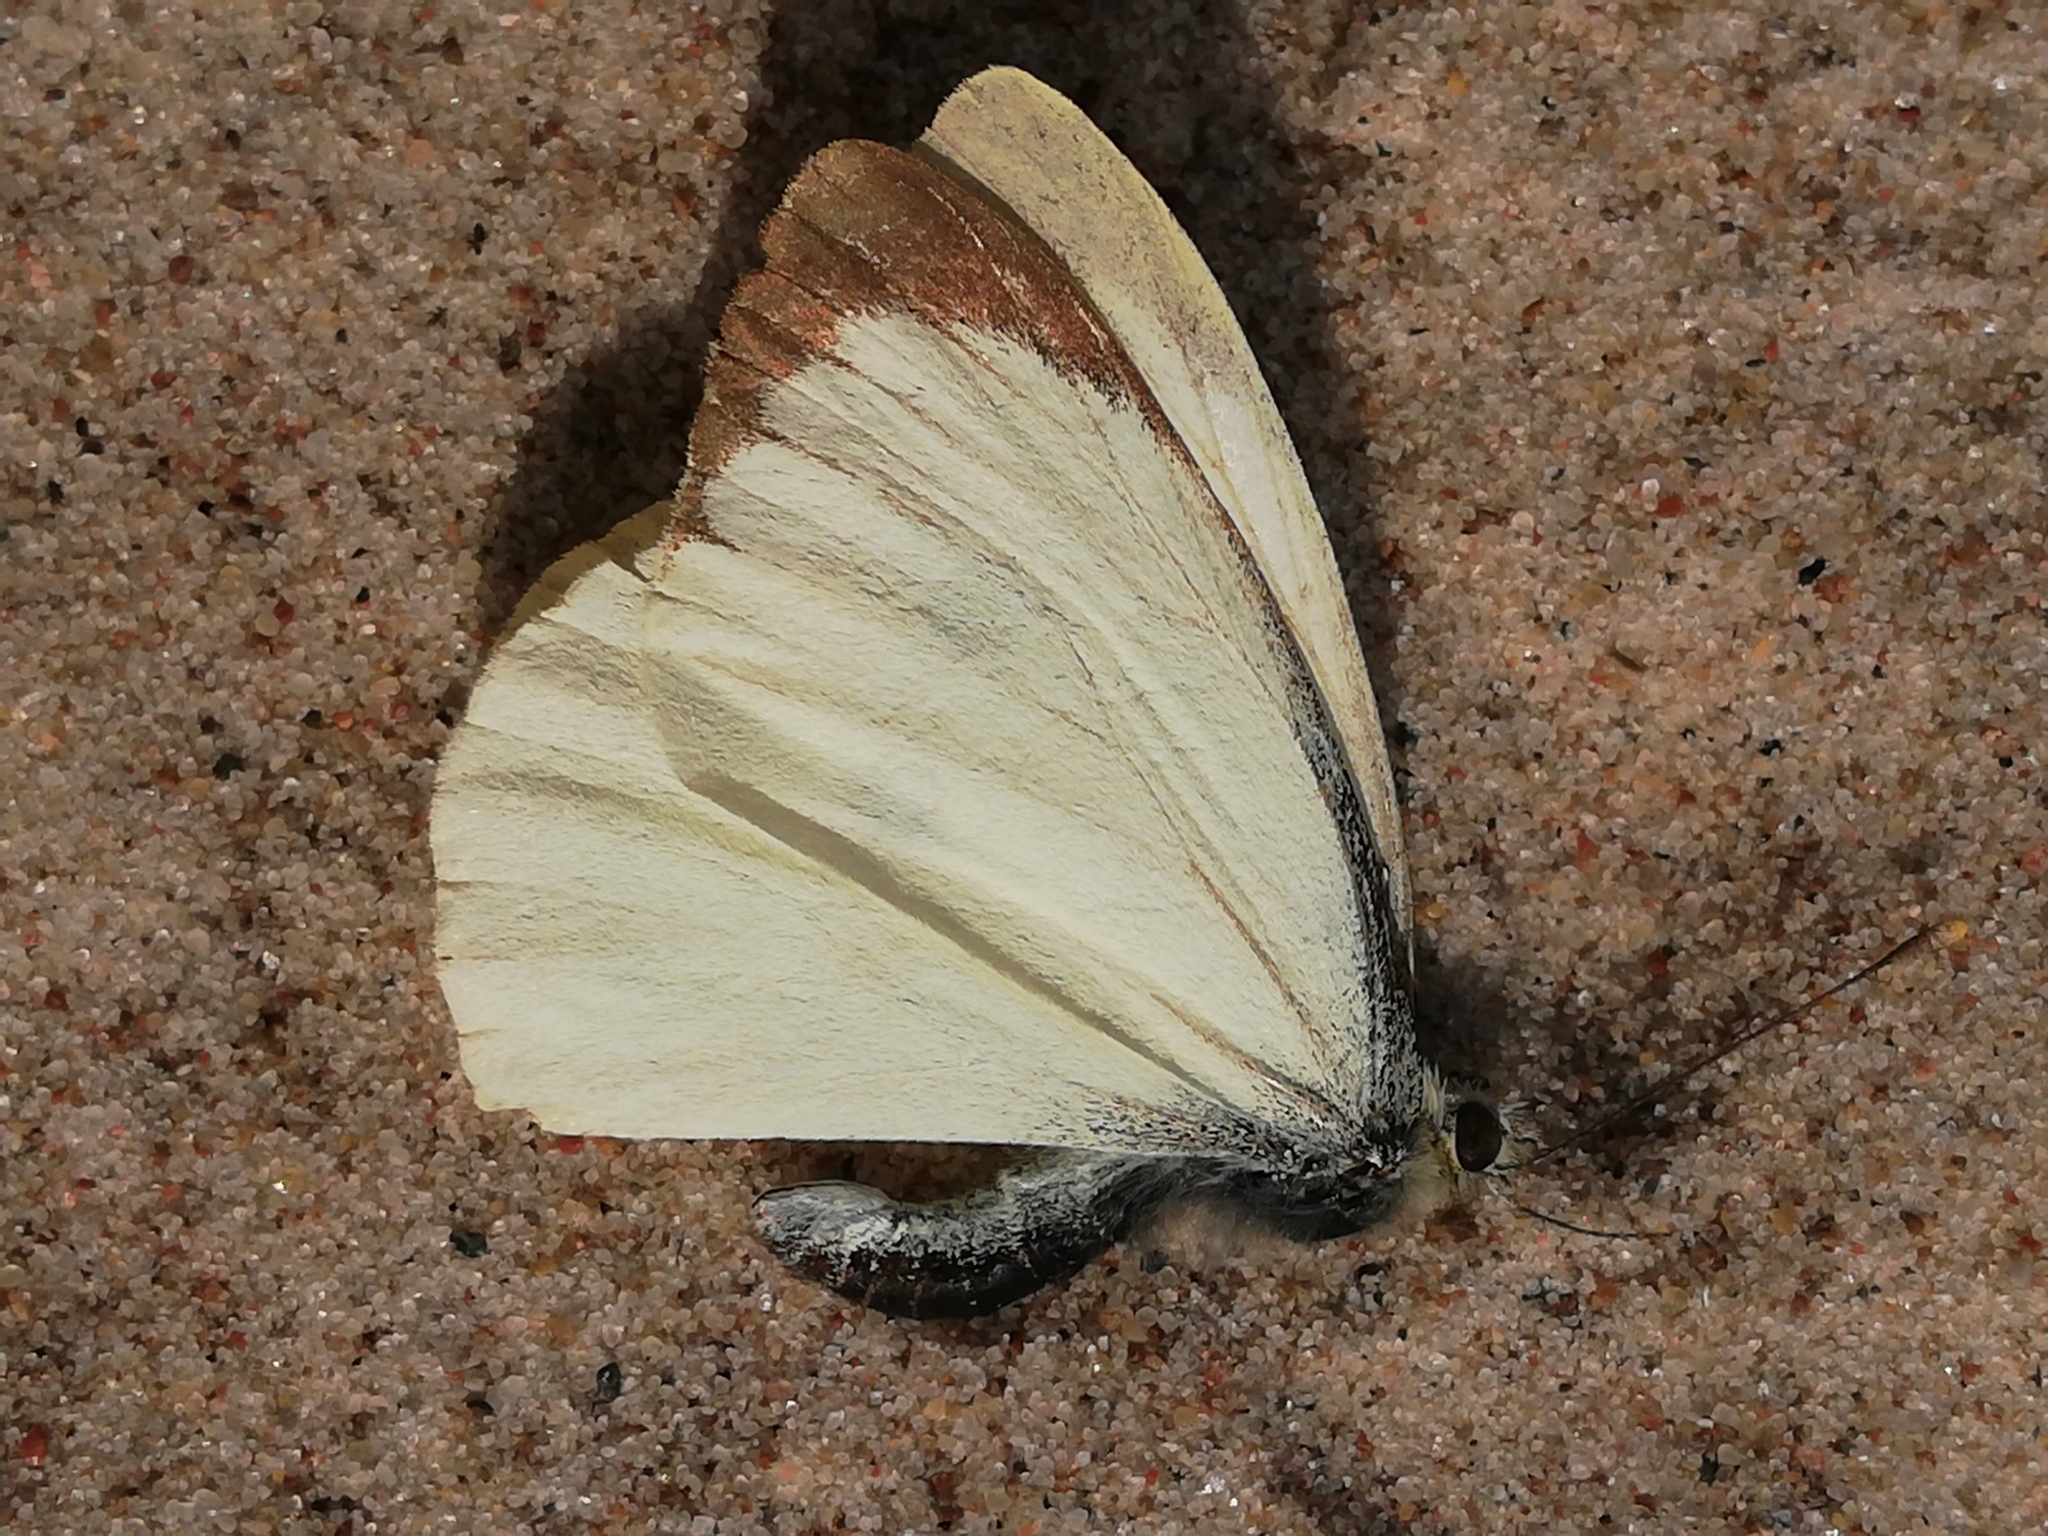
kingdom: Animalia
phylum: Arthropoda
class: Insecta
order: Lepidoptera
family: Pieridae
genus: Pieris
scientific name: Pieris brassicae
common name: Large white
